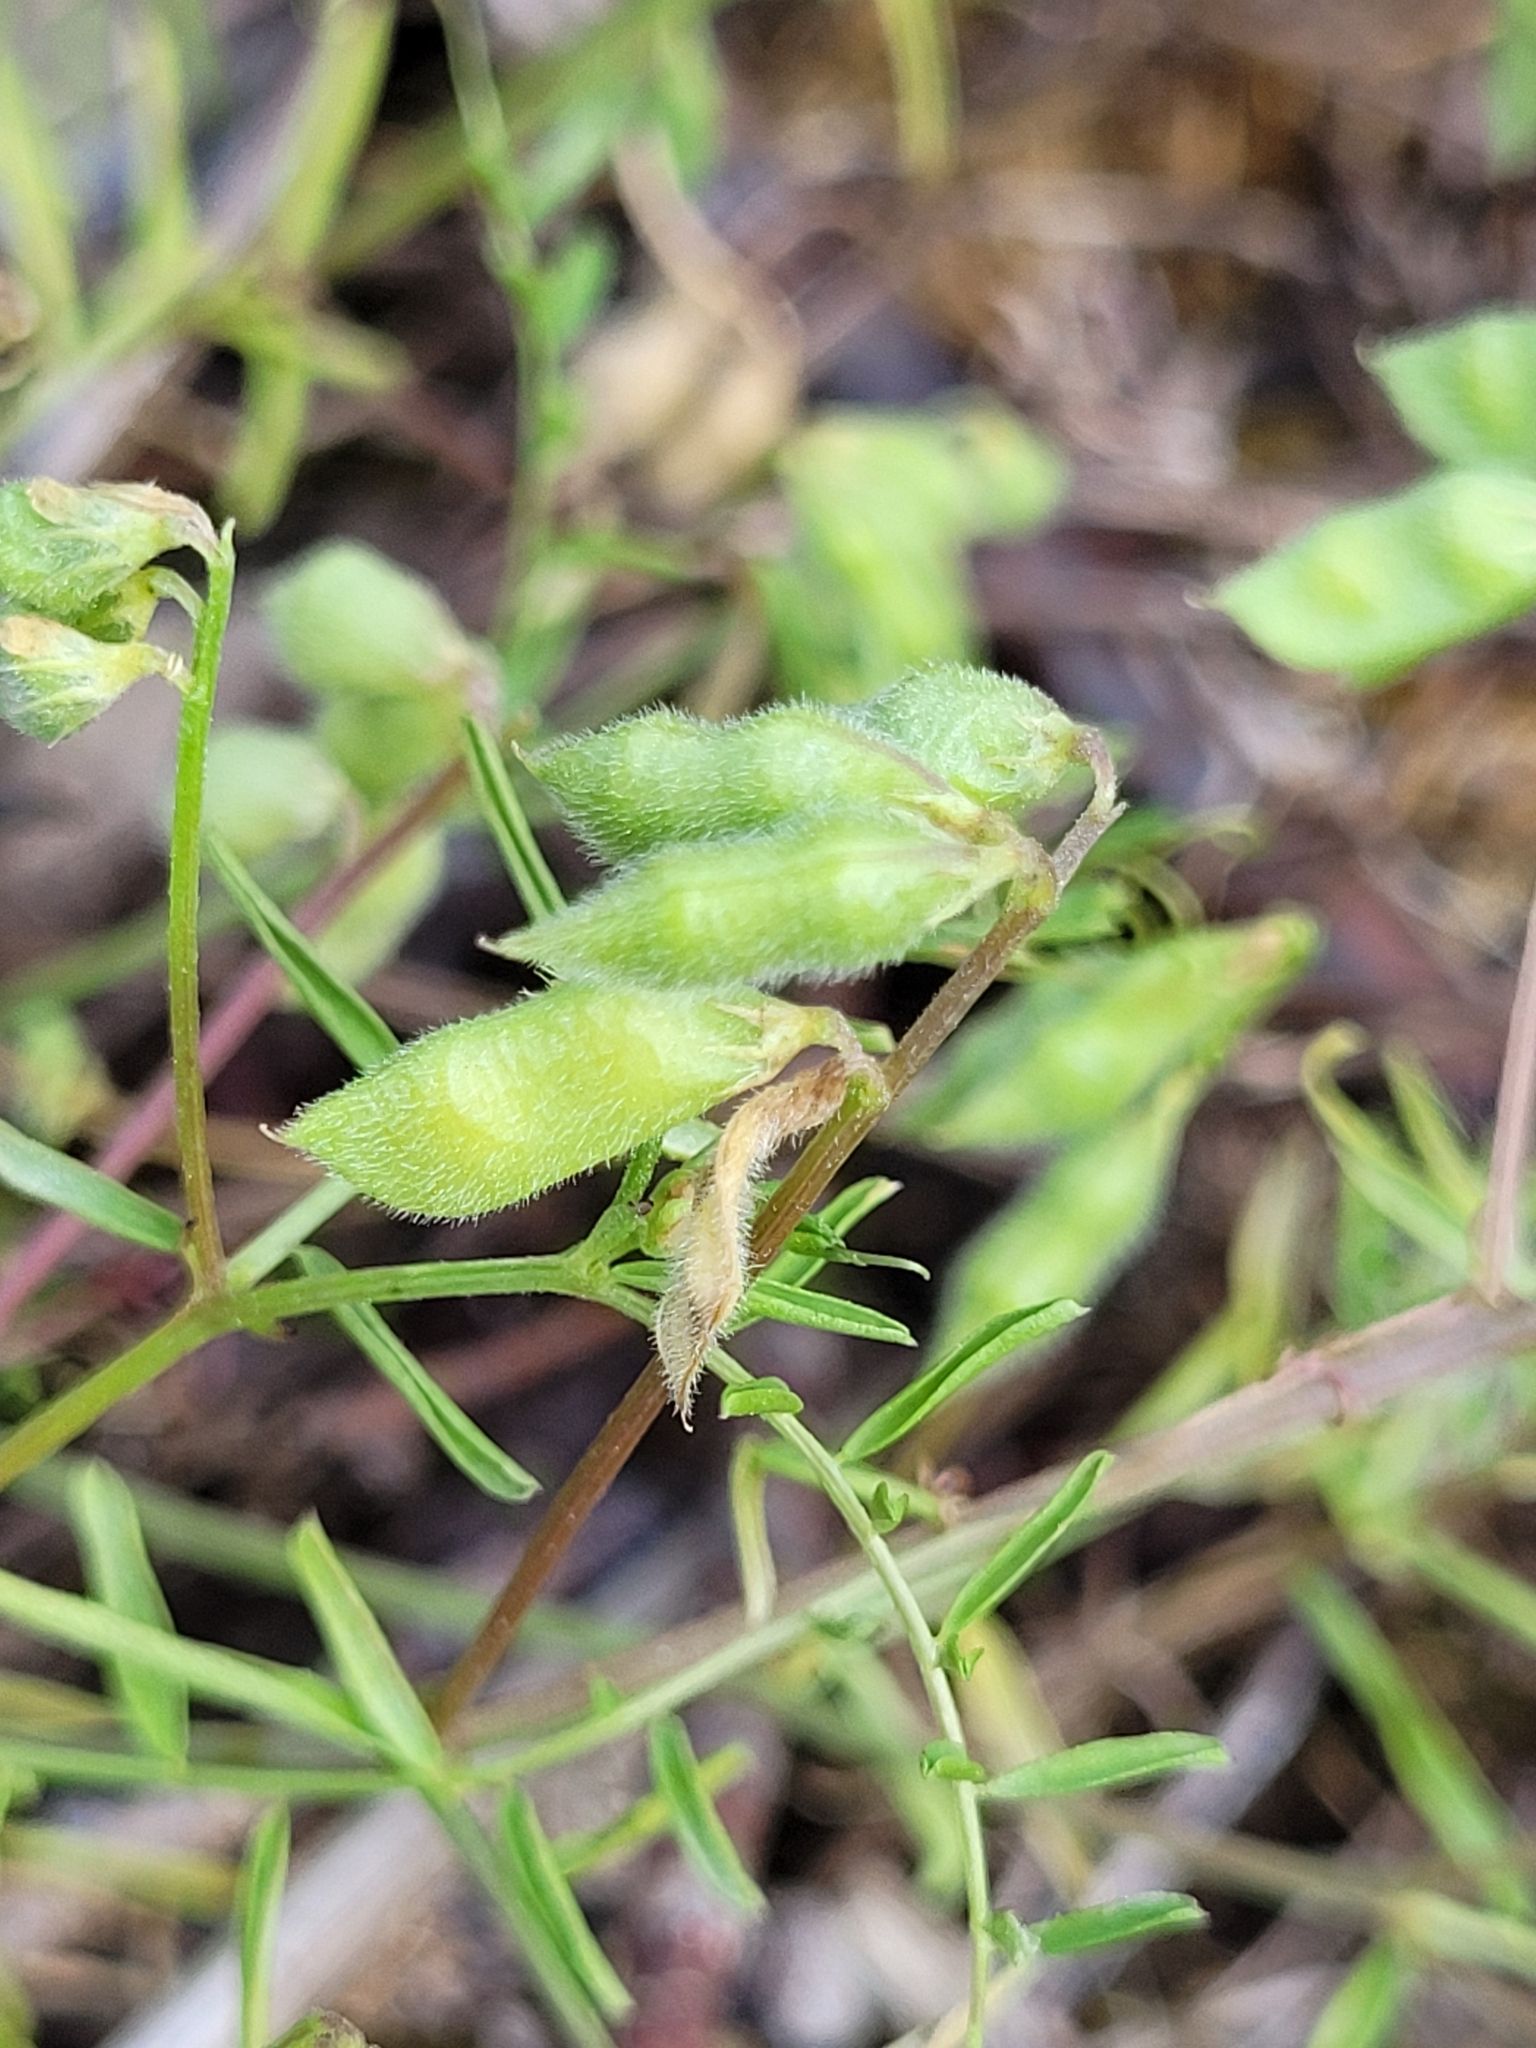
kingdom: Plantae
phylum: Tracheophyta
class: Magnoliopsida
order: Fabales
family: Fabaceae
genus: Vicia
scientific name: Vicia hirsuta
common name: Tiny vetch
